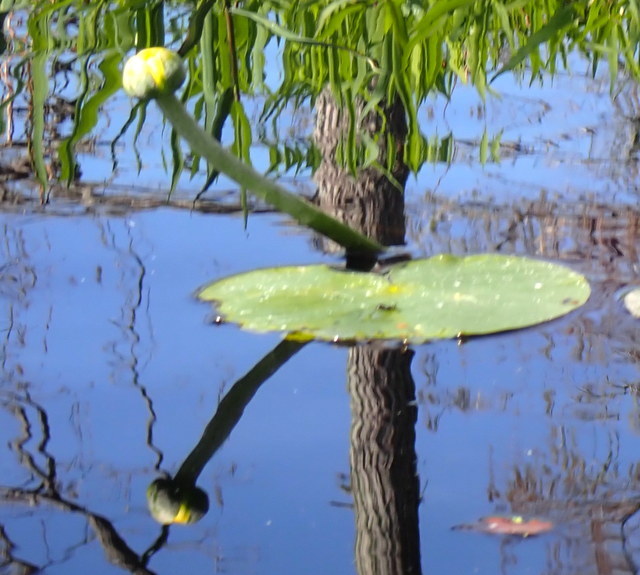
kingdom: Plantae
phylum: Tracheophyta
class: Magnoliopsida
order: Nymphaeales
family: Nymphaeaceae
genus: Nuphar
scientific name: Nuphar advena
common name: Spatter-dock
